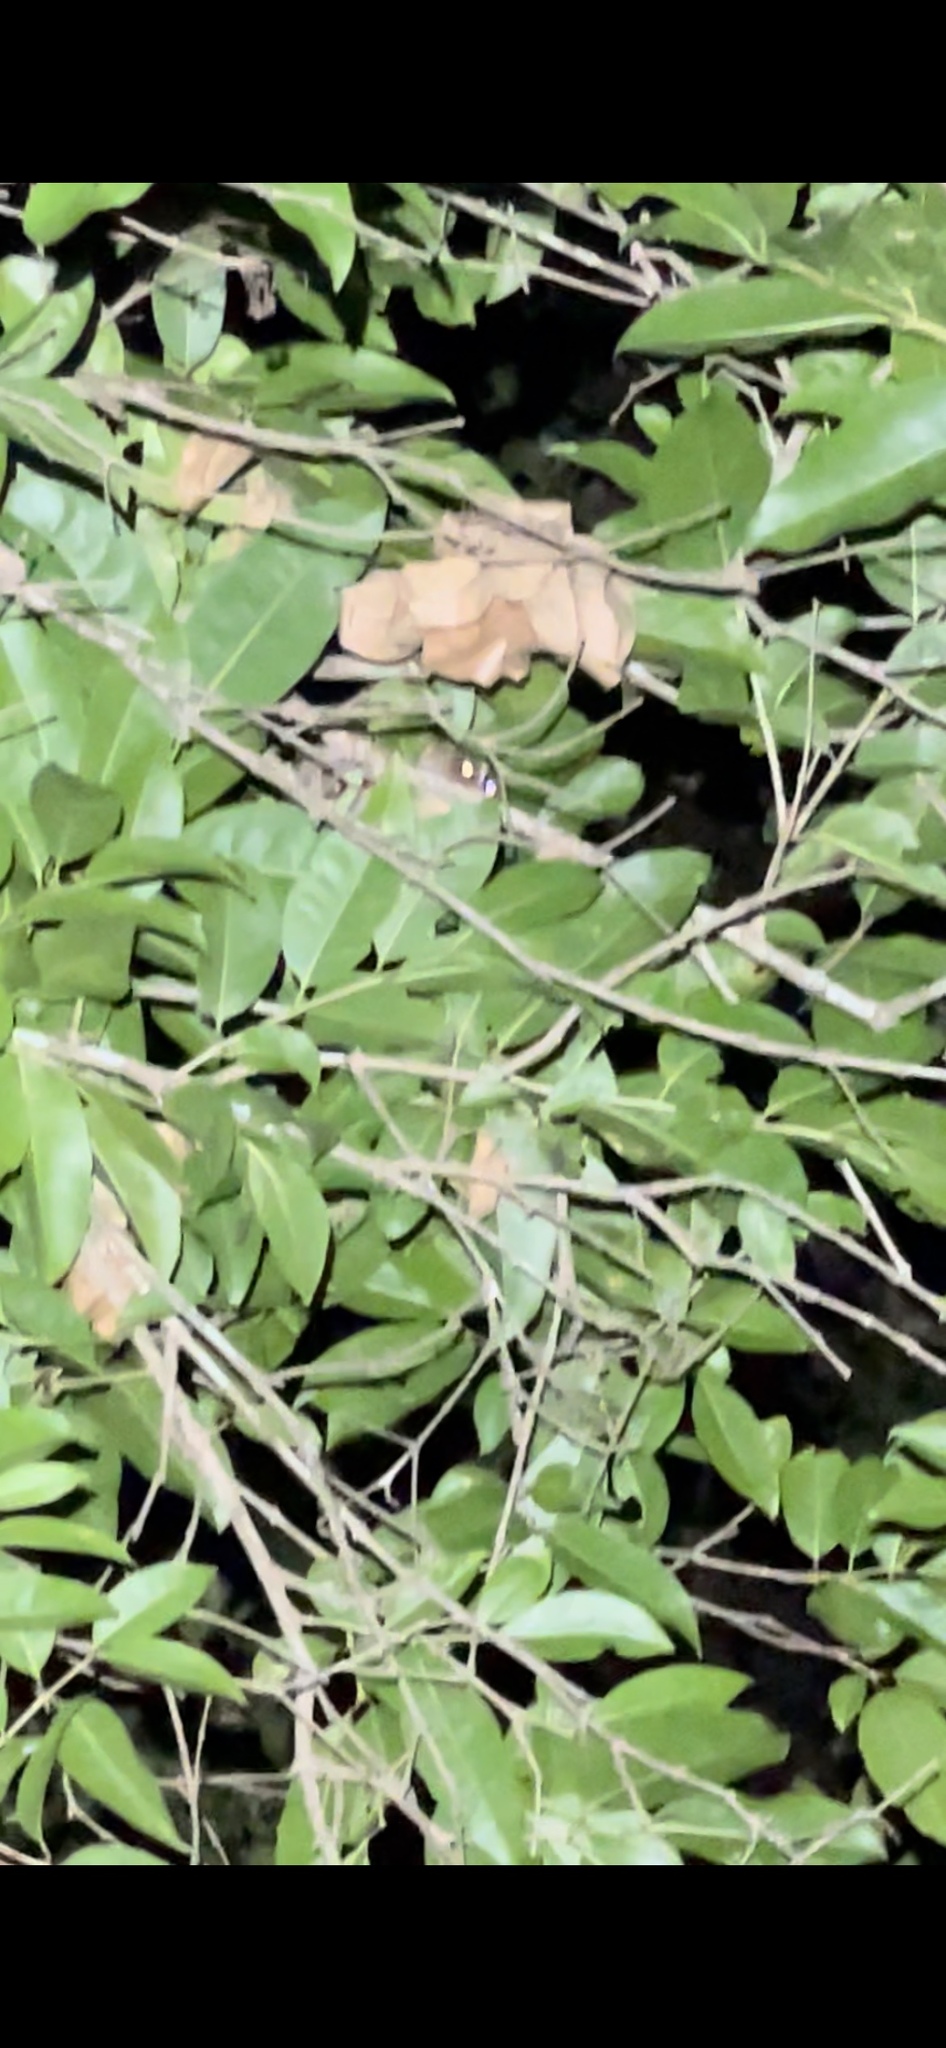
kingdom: Animalia
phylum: Chordata
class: Mammalia
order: Primates
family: Lorisidae
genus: Loris
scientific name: Loris lydekkerianus
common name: Gray slender loris
